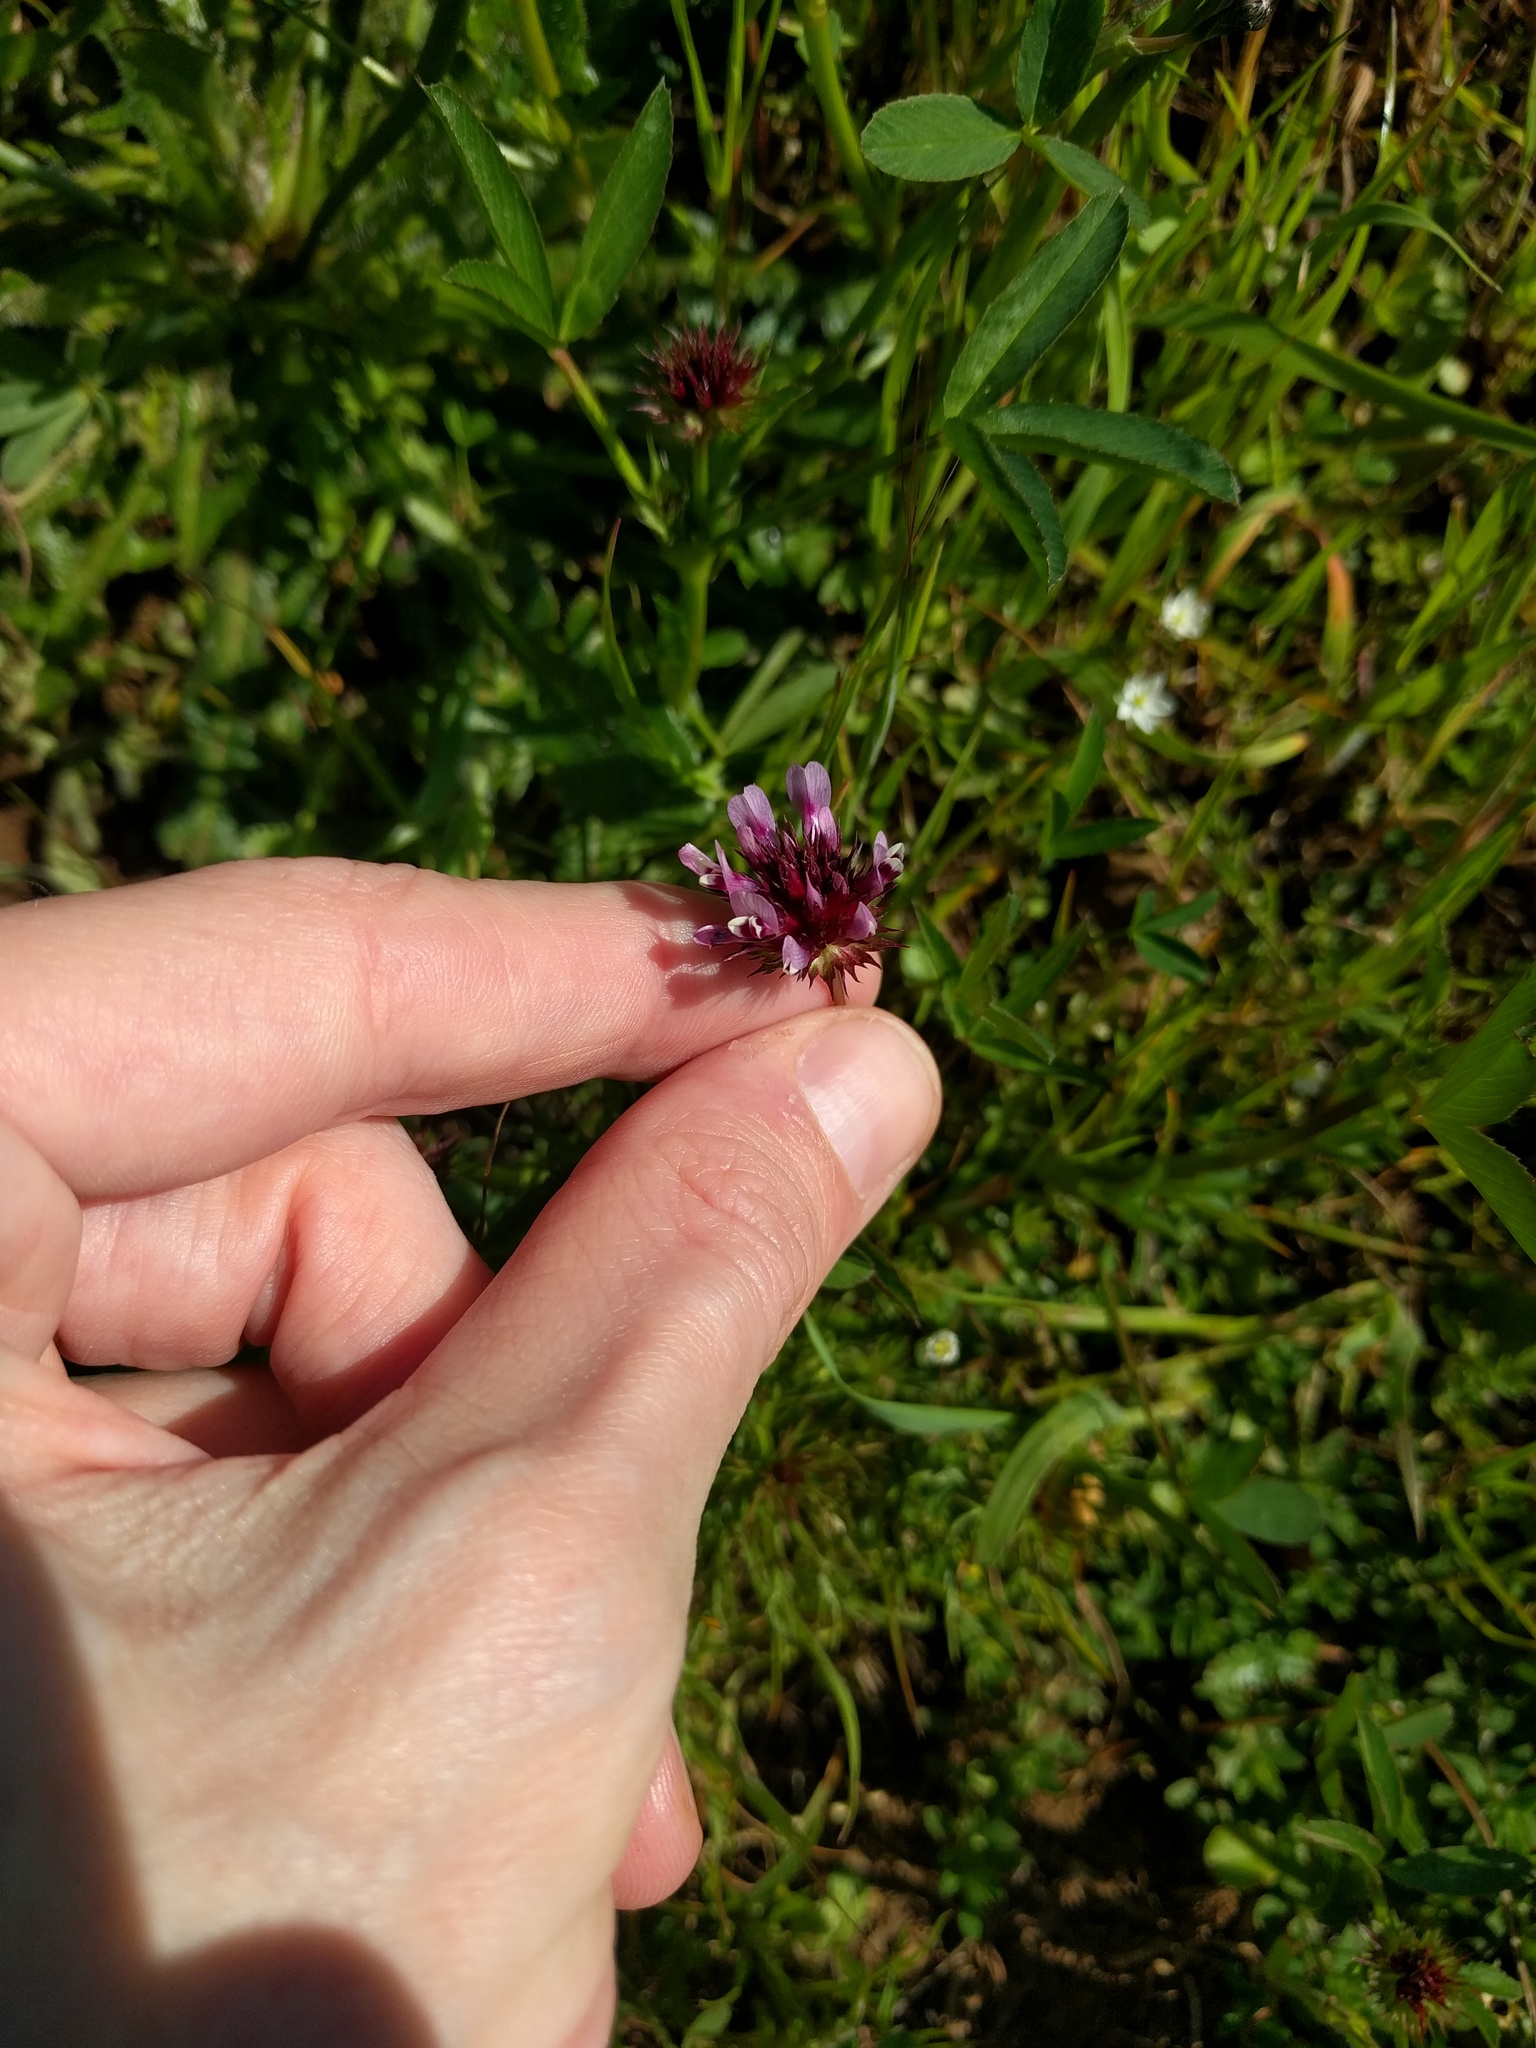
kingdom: Plantae
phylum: Tracheophyta
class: Magnoliopsida
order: Fabales
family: Fabaceae
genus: Trifolium
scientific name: Trifolium willdenovii
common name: Tomcat clover
